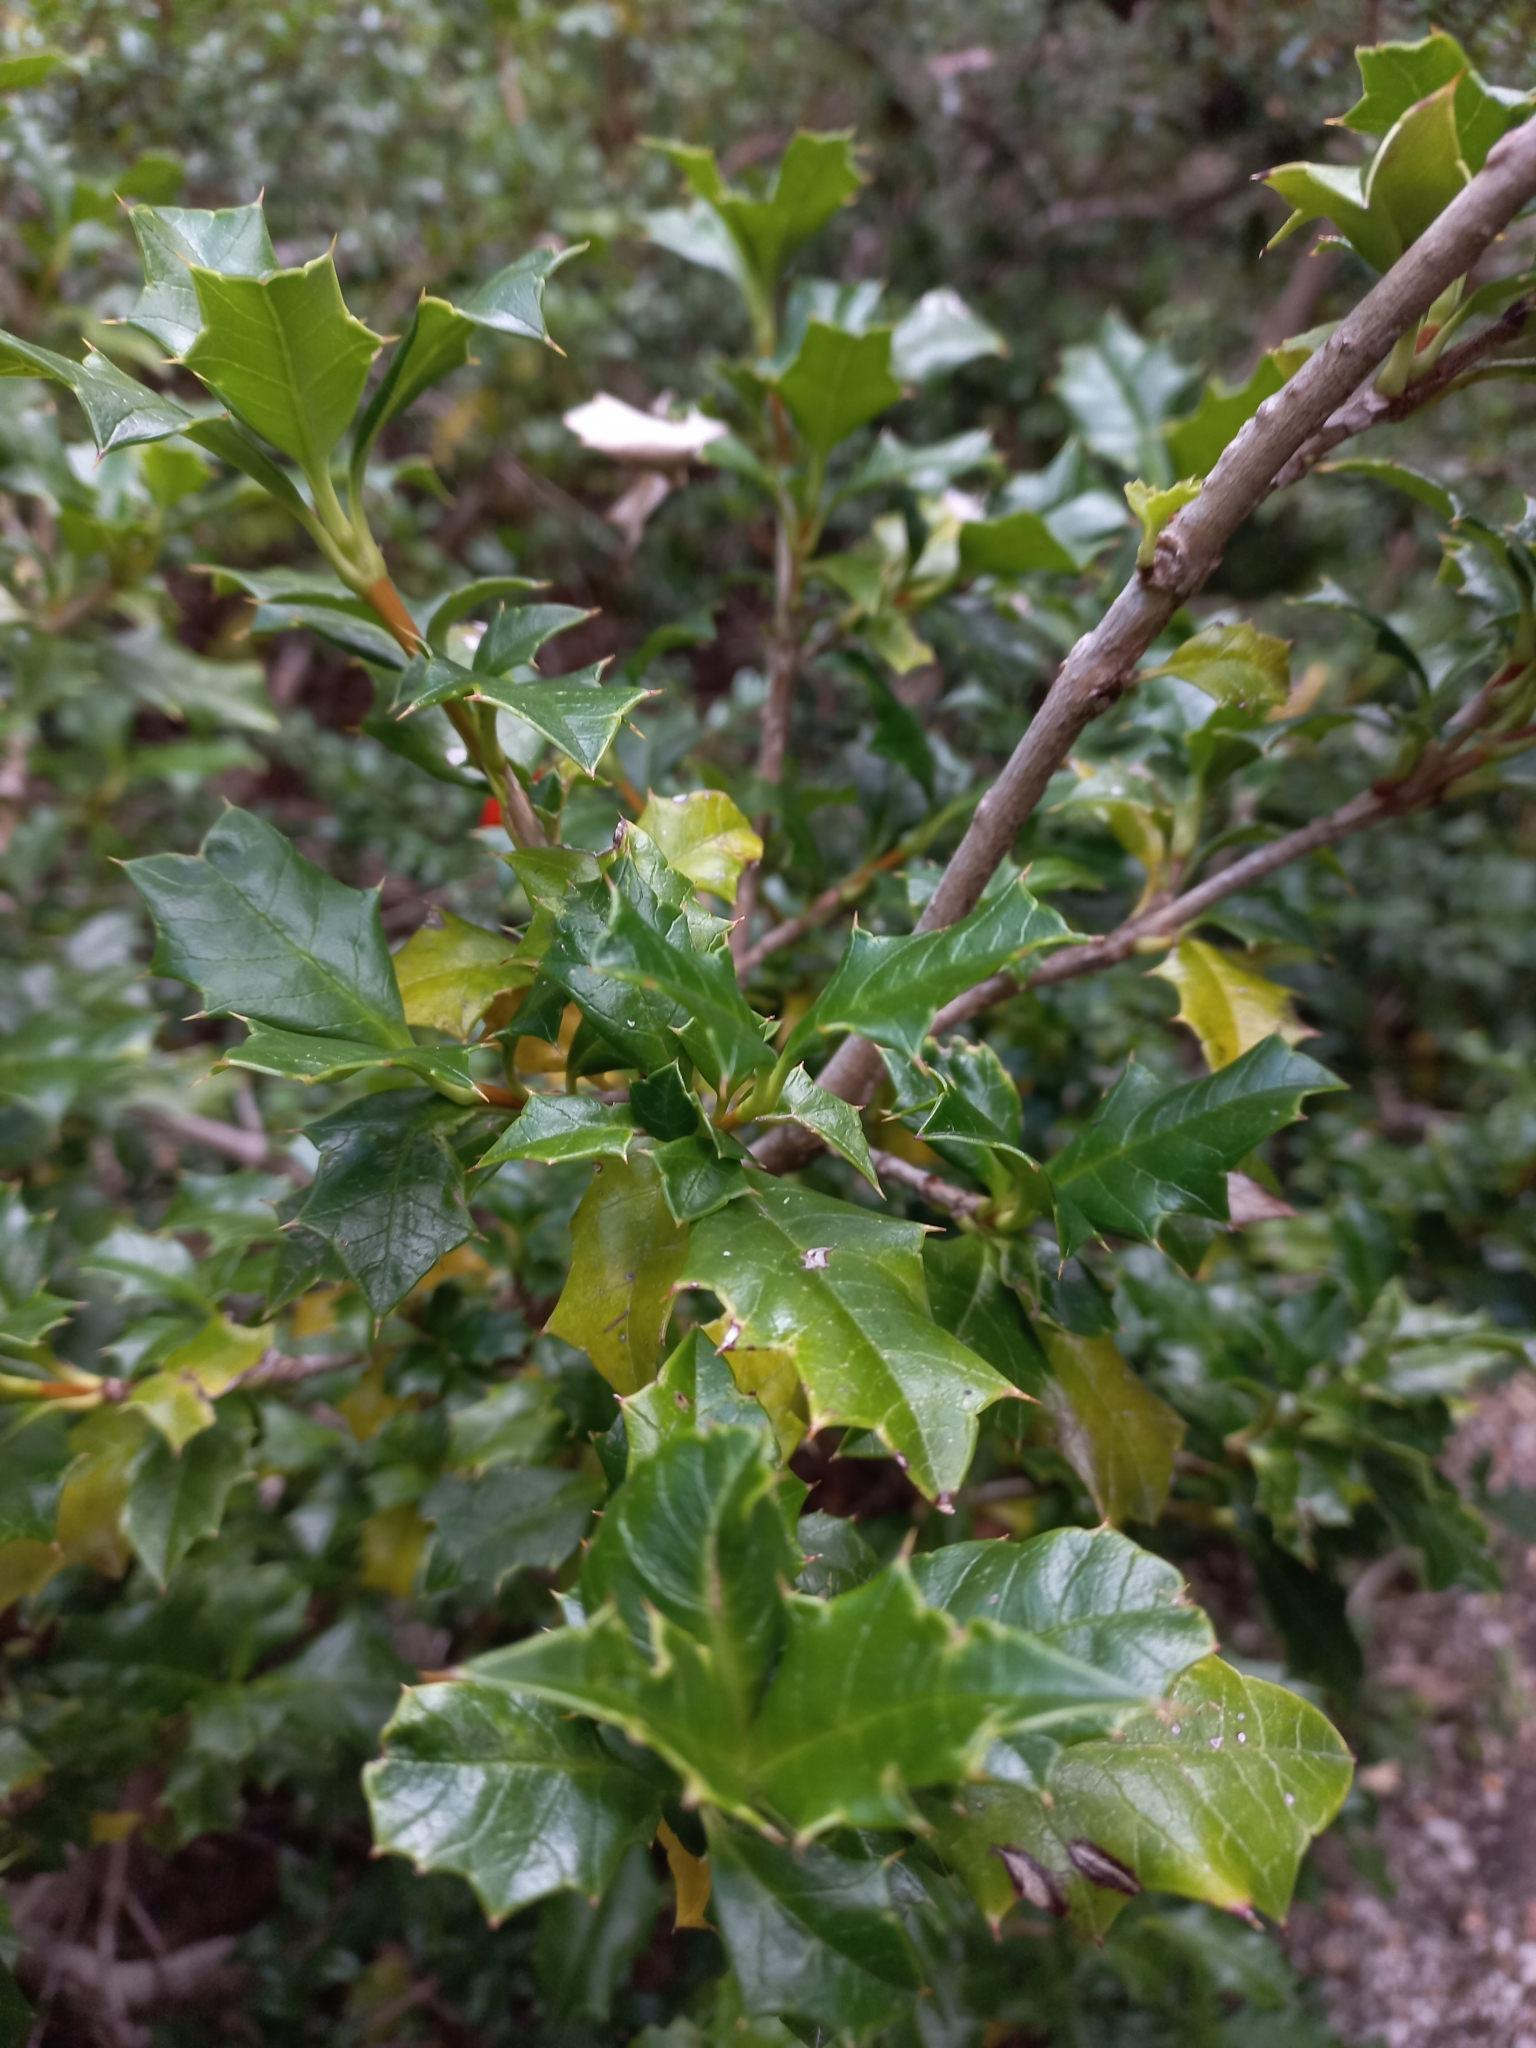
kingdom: Plantae
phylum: Tracheophyta
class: Magnoliopsida
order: Bruniales
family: Columelliaceae
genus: Desfontainia
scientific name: Desfontainia fulgens
